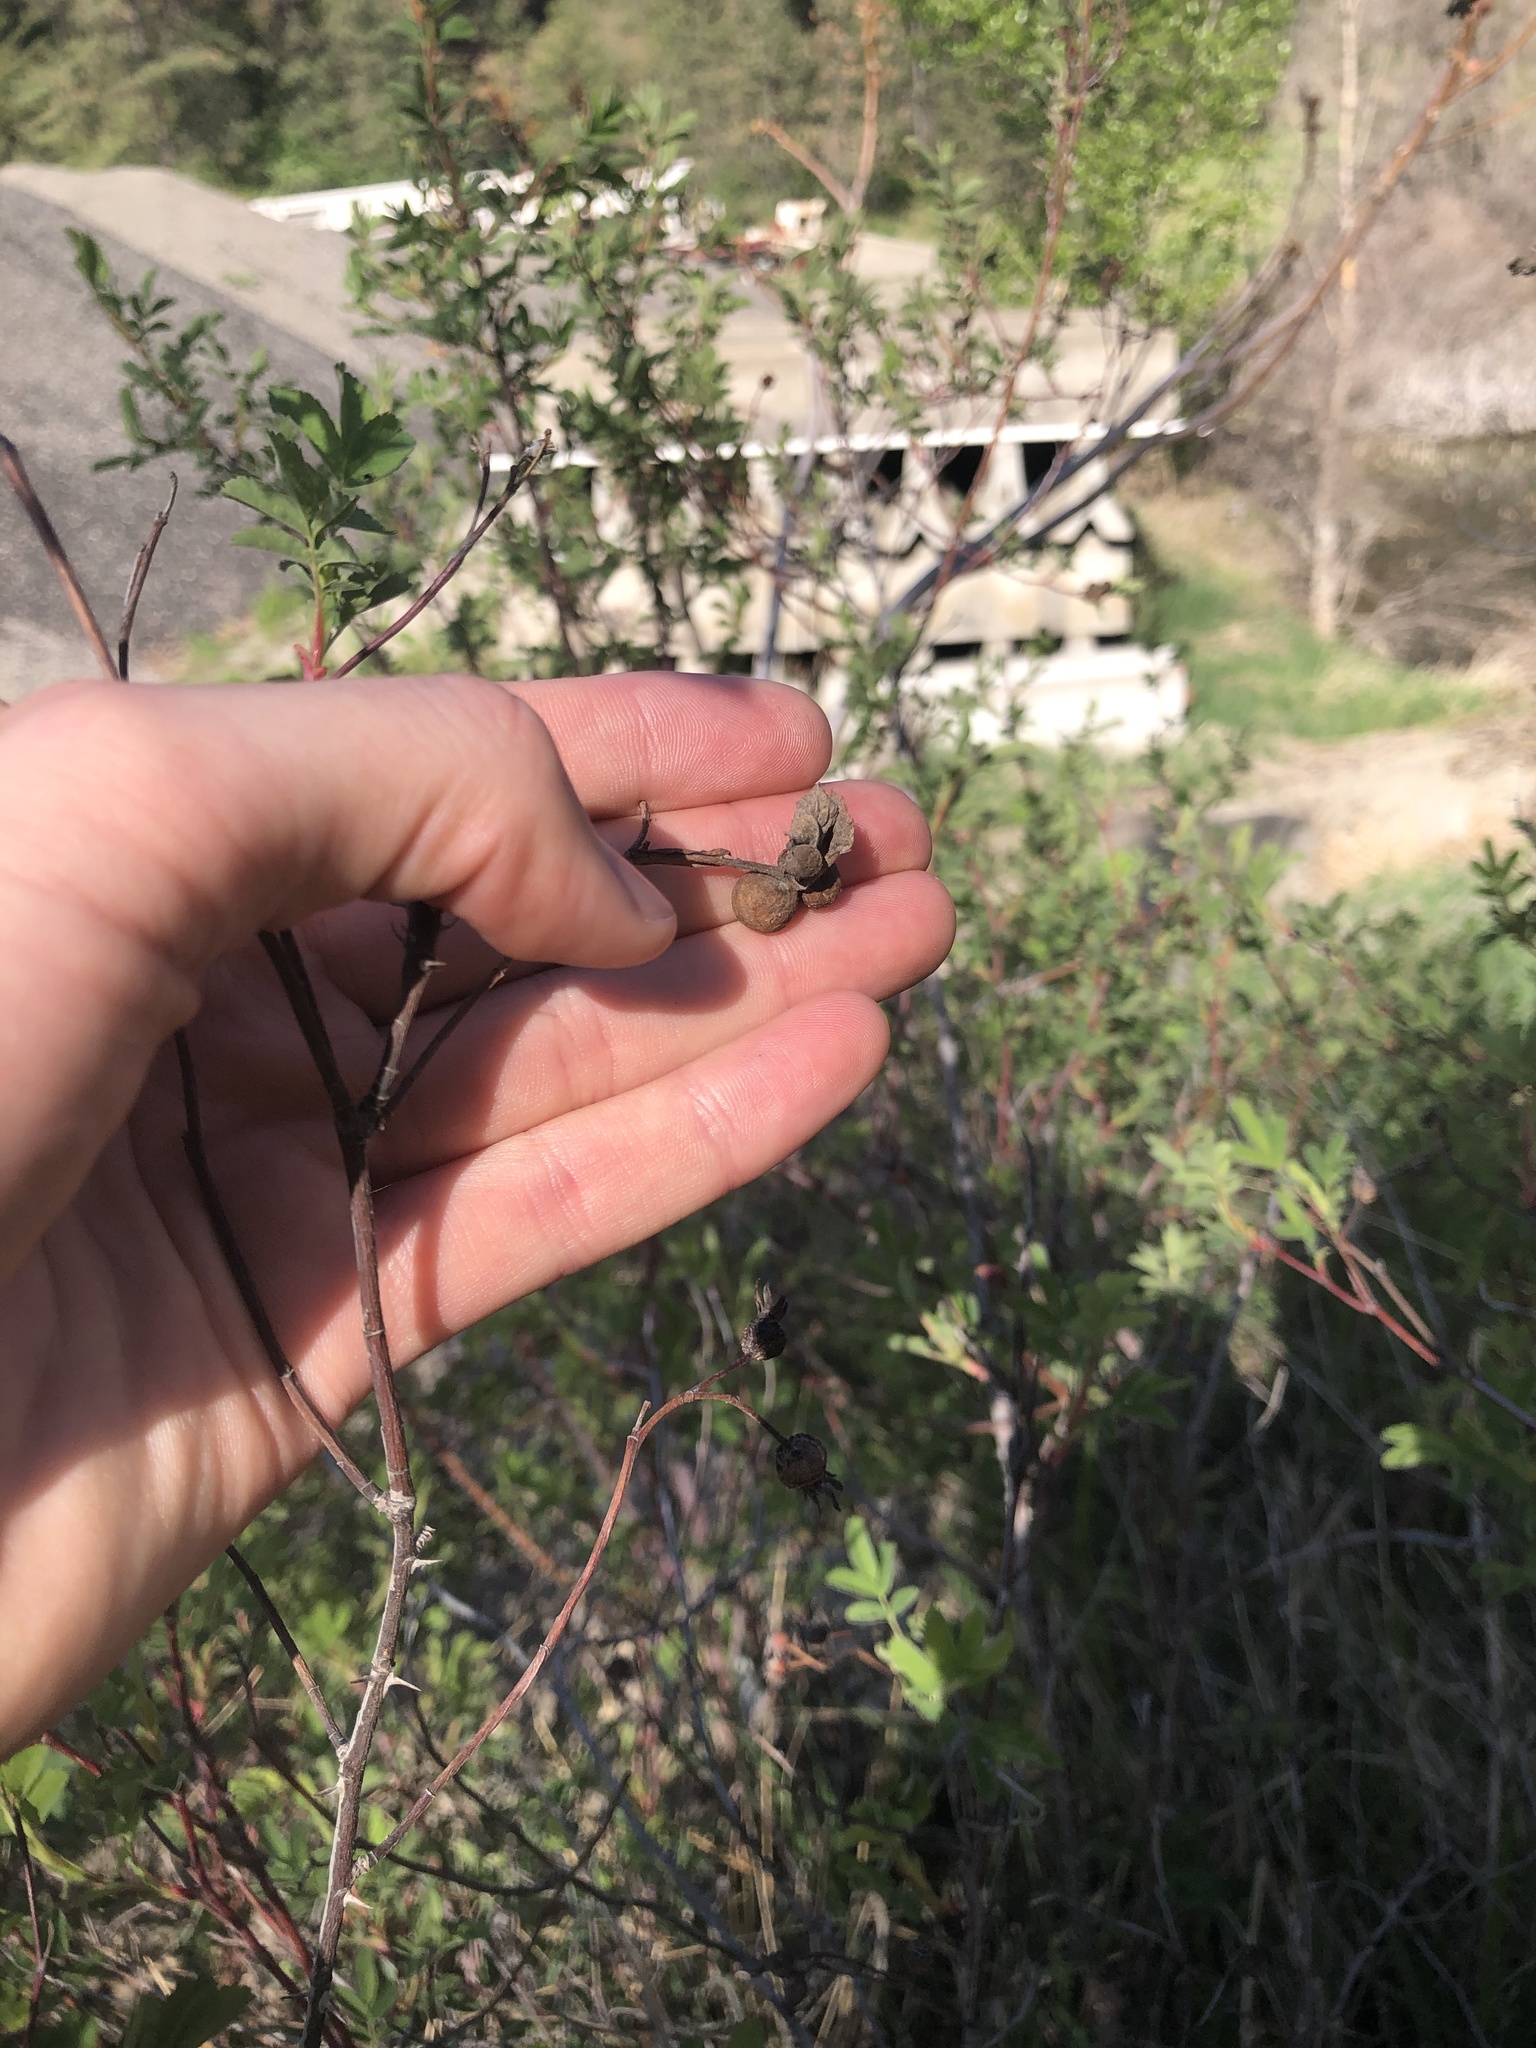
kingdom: Animalia
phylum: Arthropoda
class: Insecta
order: Hymenoptera
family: Cynipidae
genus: Diplolepis
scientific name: Diplolepis variabilis
